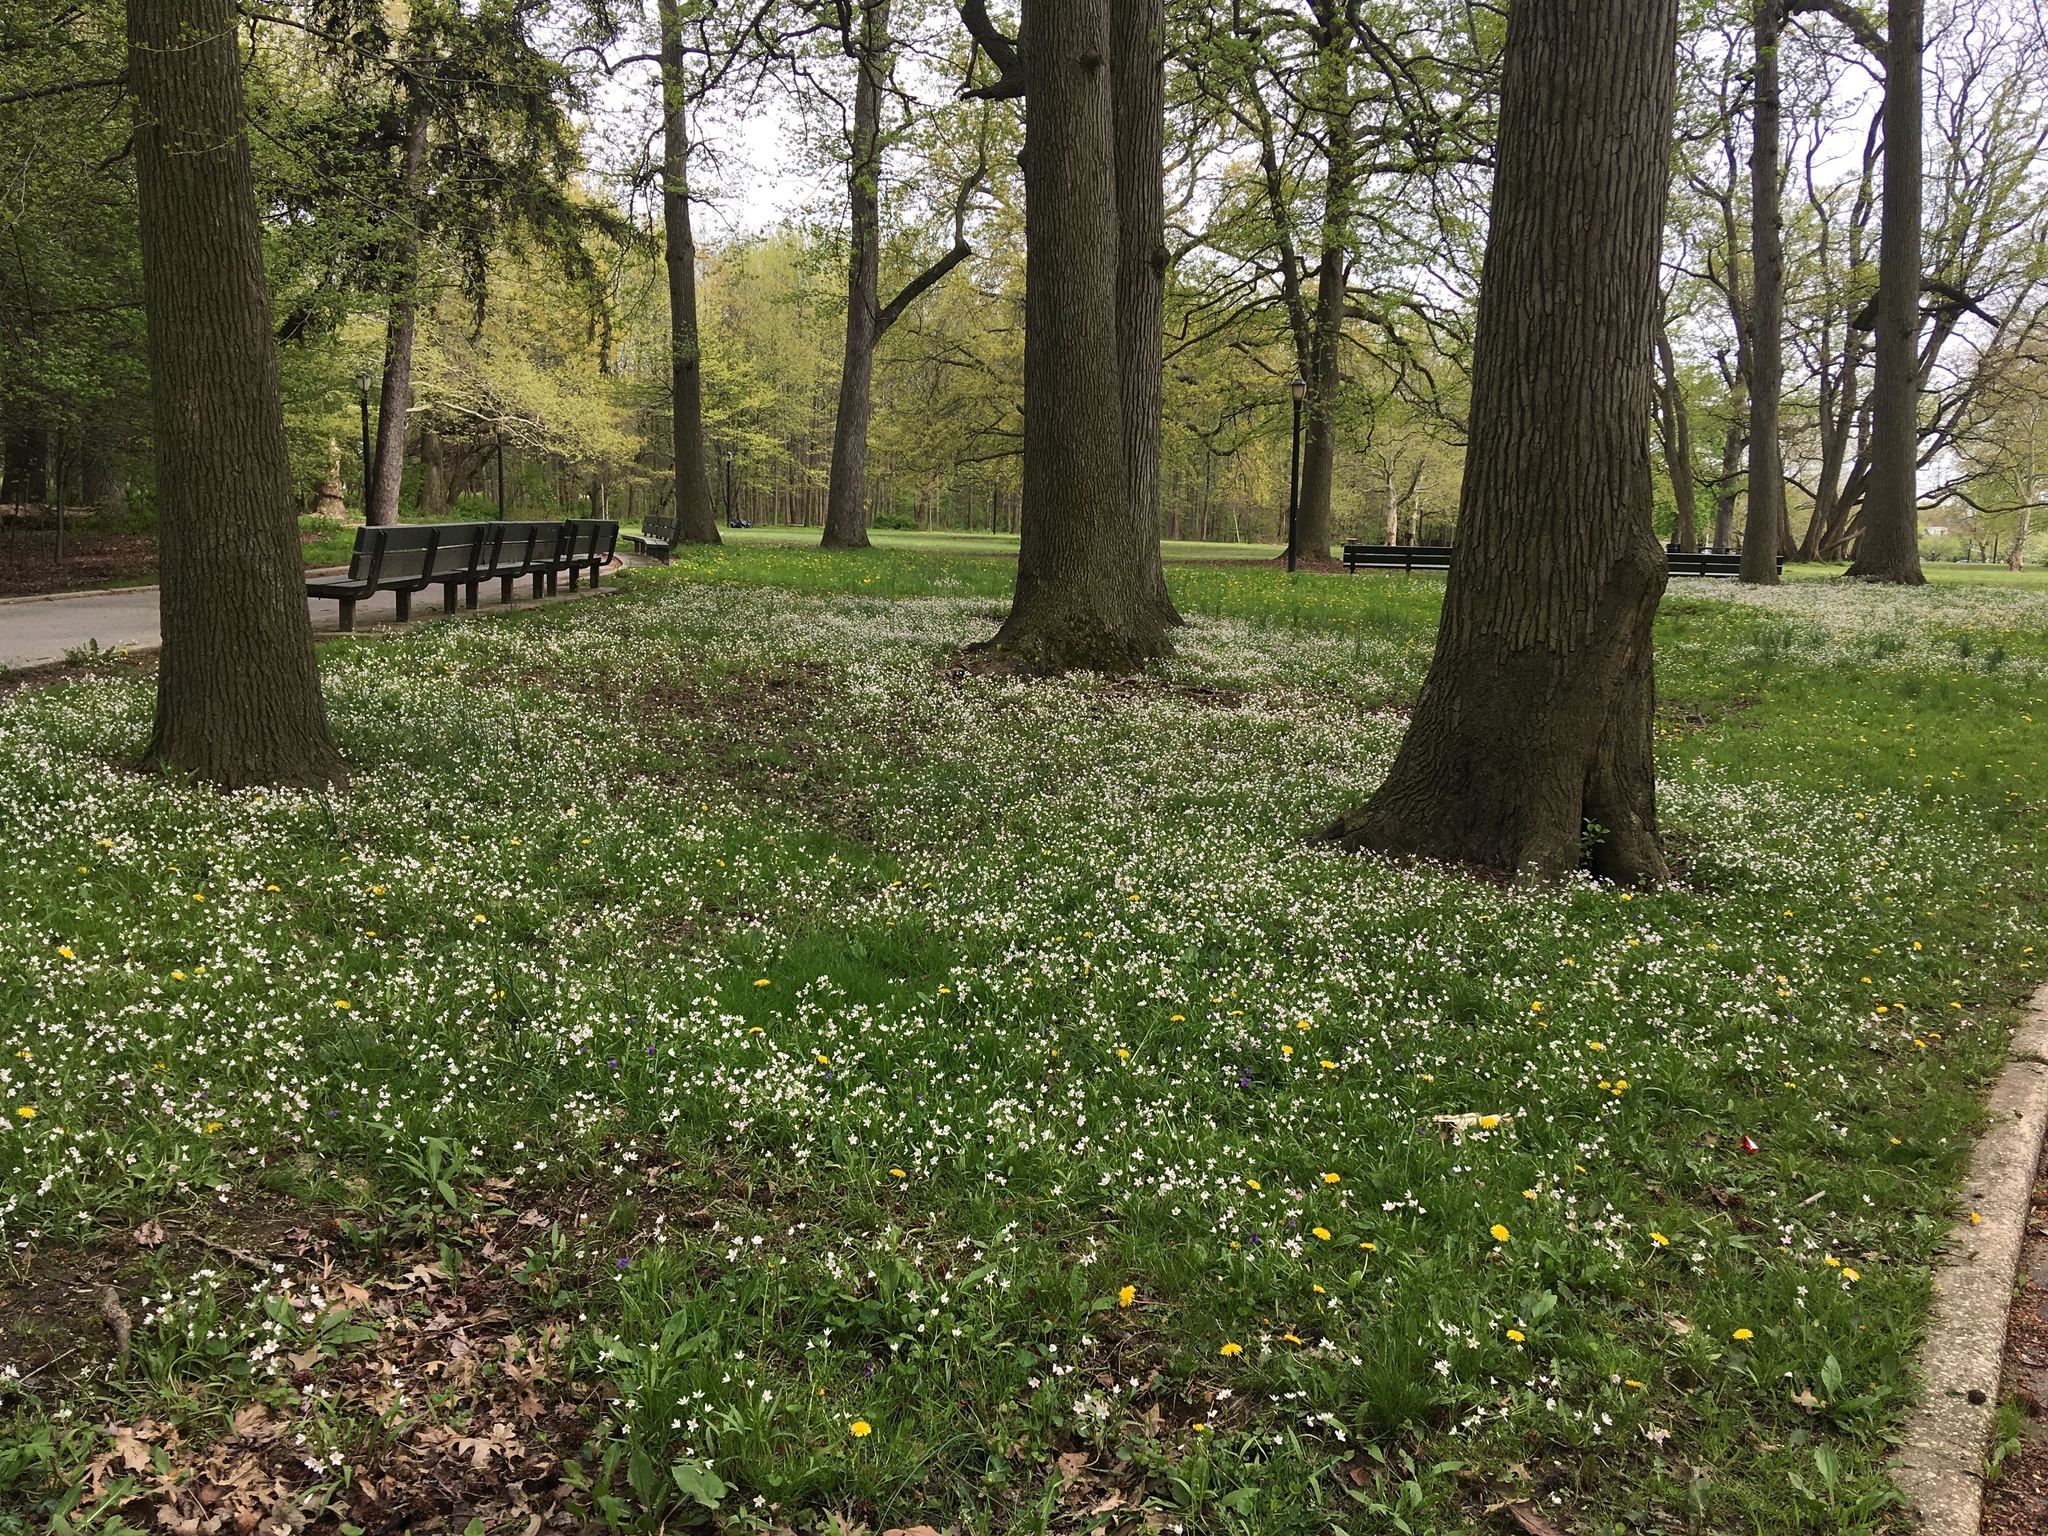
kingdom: Plantae
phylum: Tracheophyta
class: Magnoliopsida
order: Caryophyllales
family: Montiaceae
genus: Claytonia
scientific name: Claytonia virginica
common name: Virginia springbeauty
